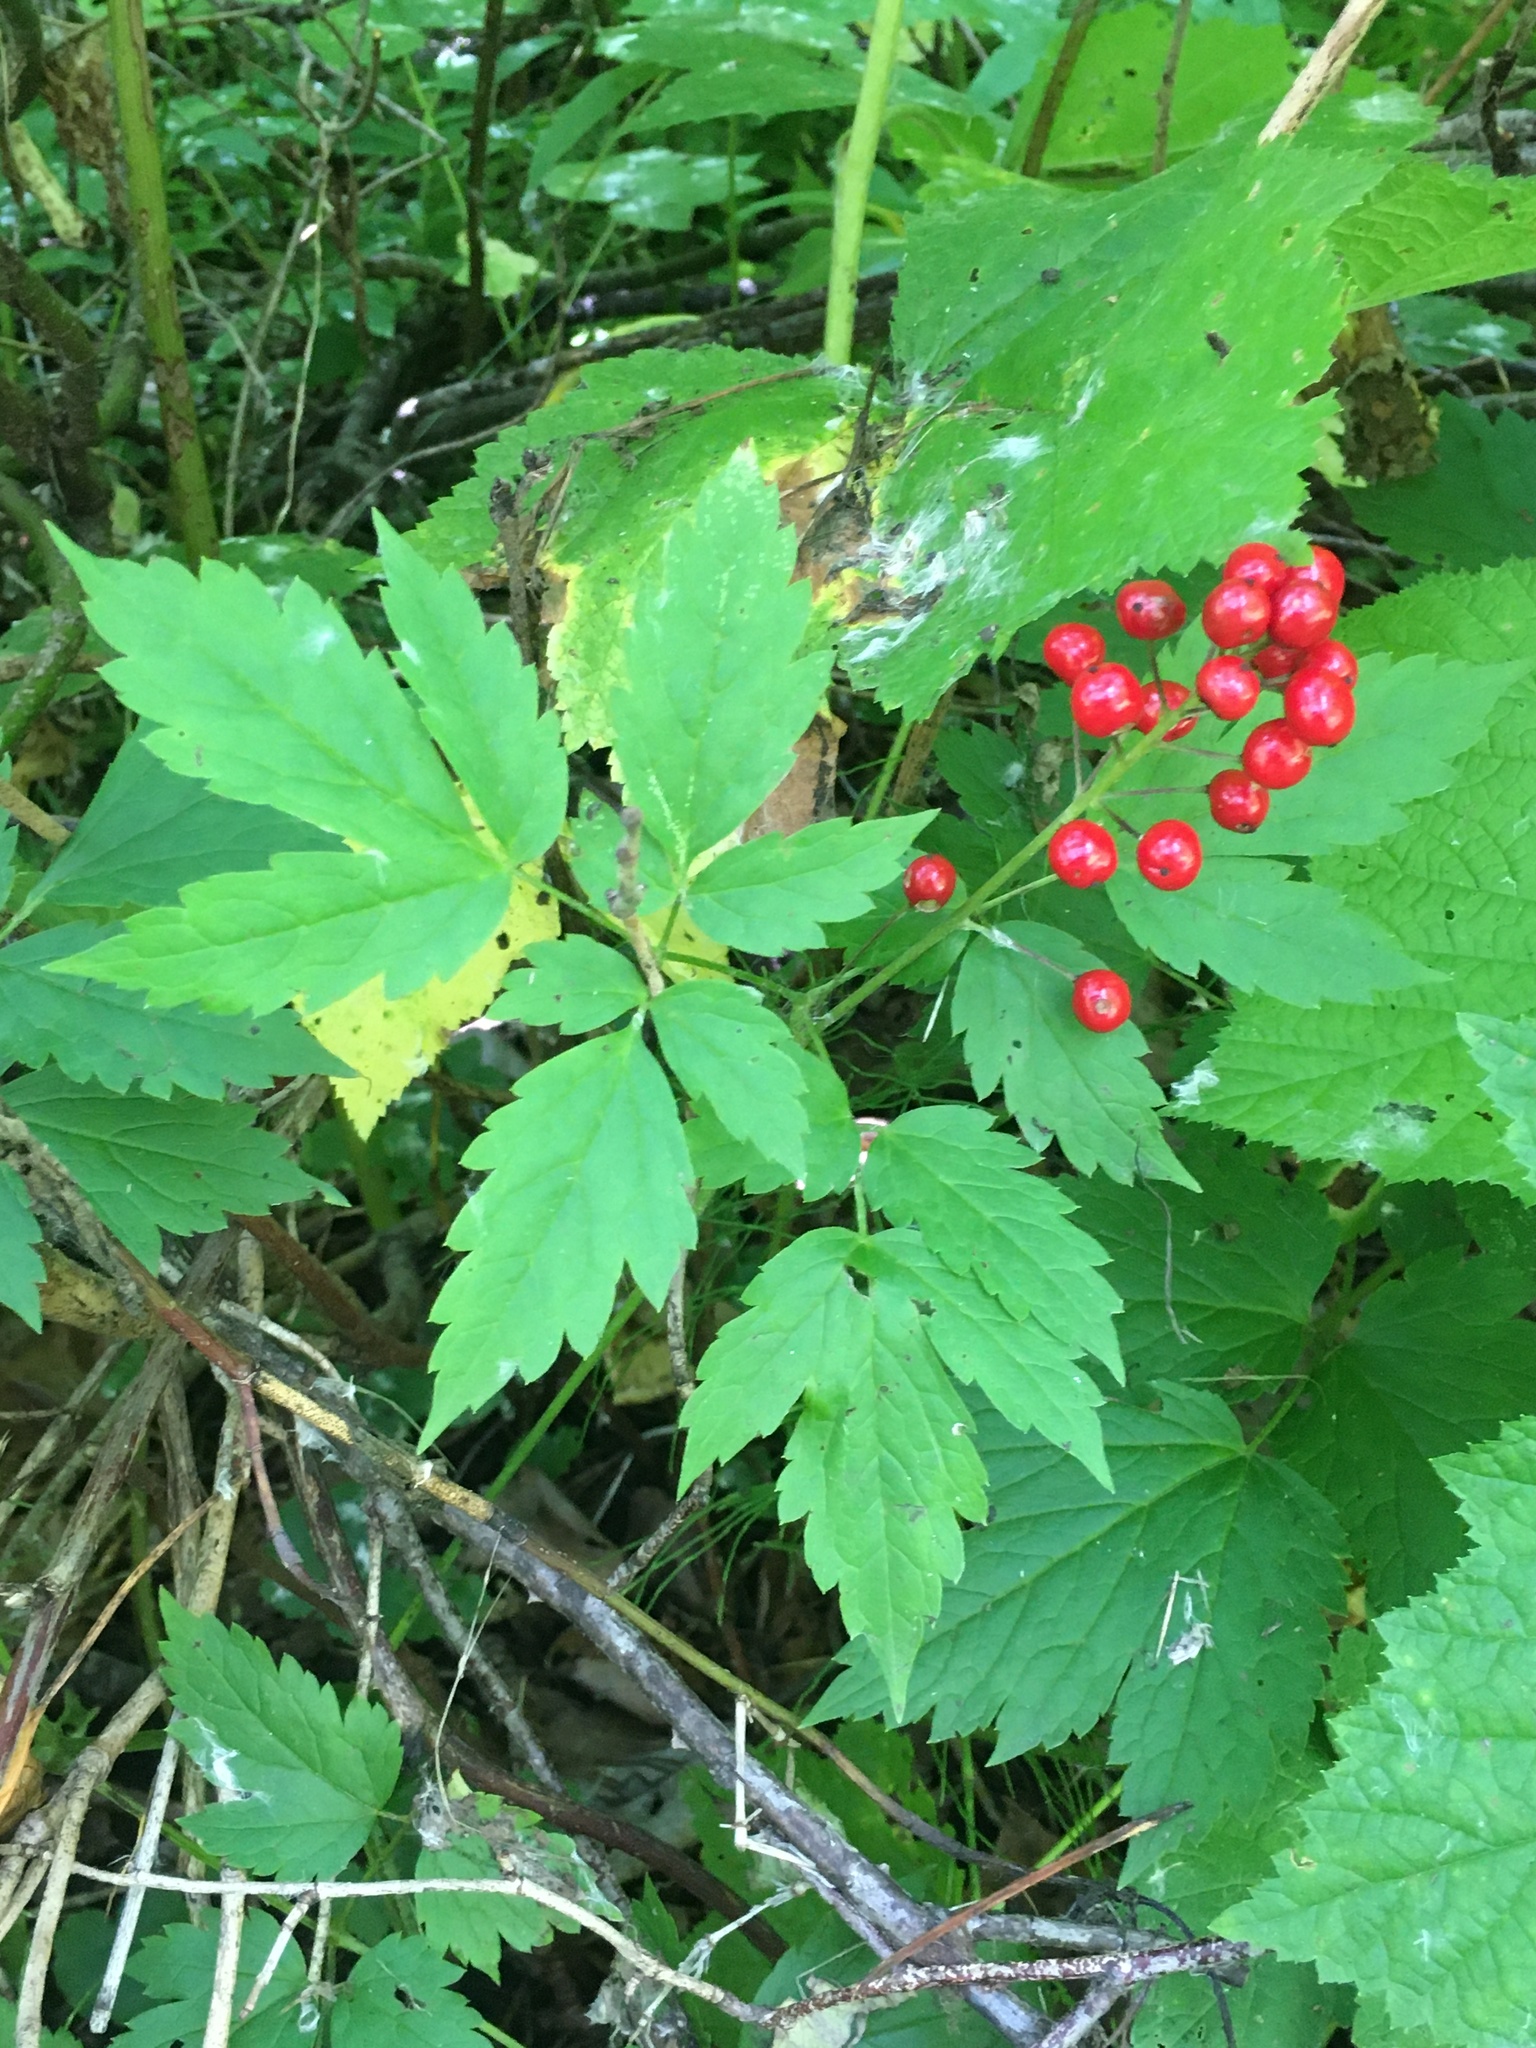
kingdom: Plantae
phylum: Tracheophyta
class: Magnoliopsida
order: Ranunculales
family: Ranunculaceae
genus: Actaea
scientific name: Actaea rubra
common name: Red baneberry
